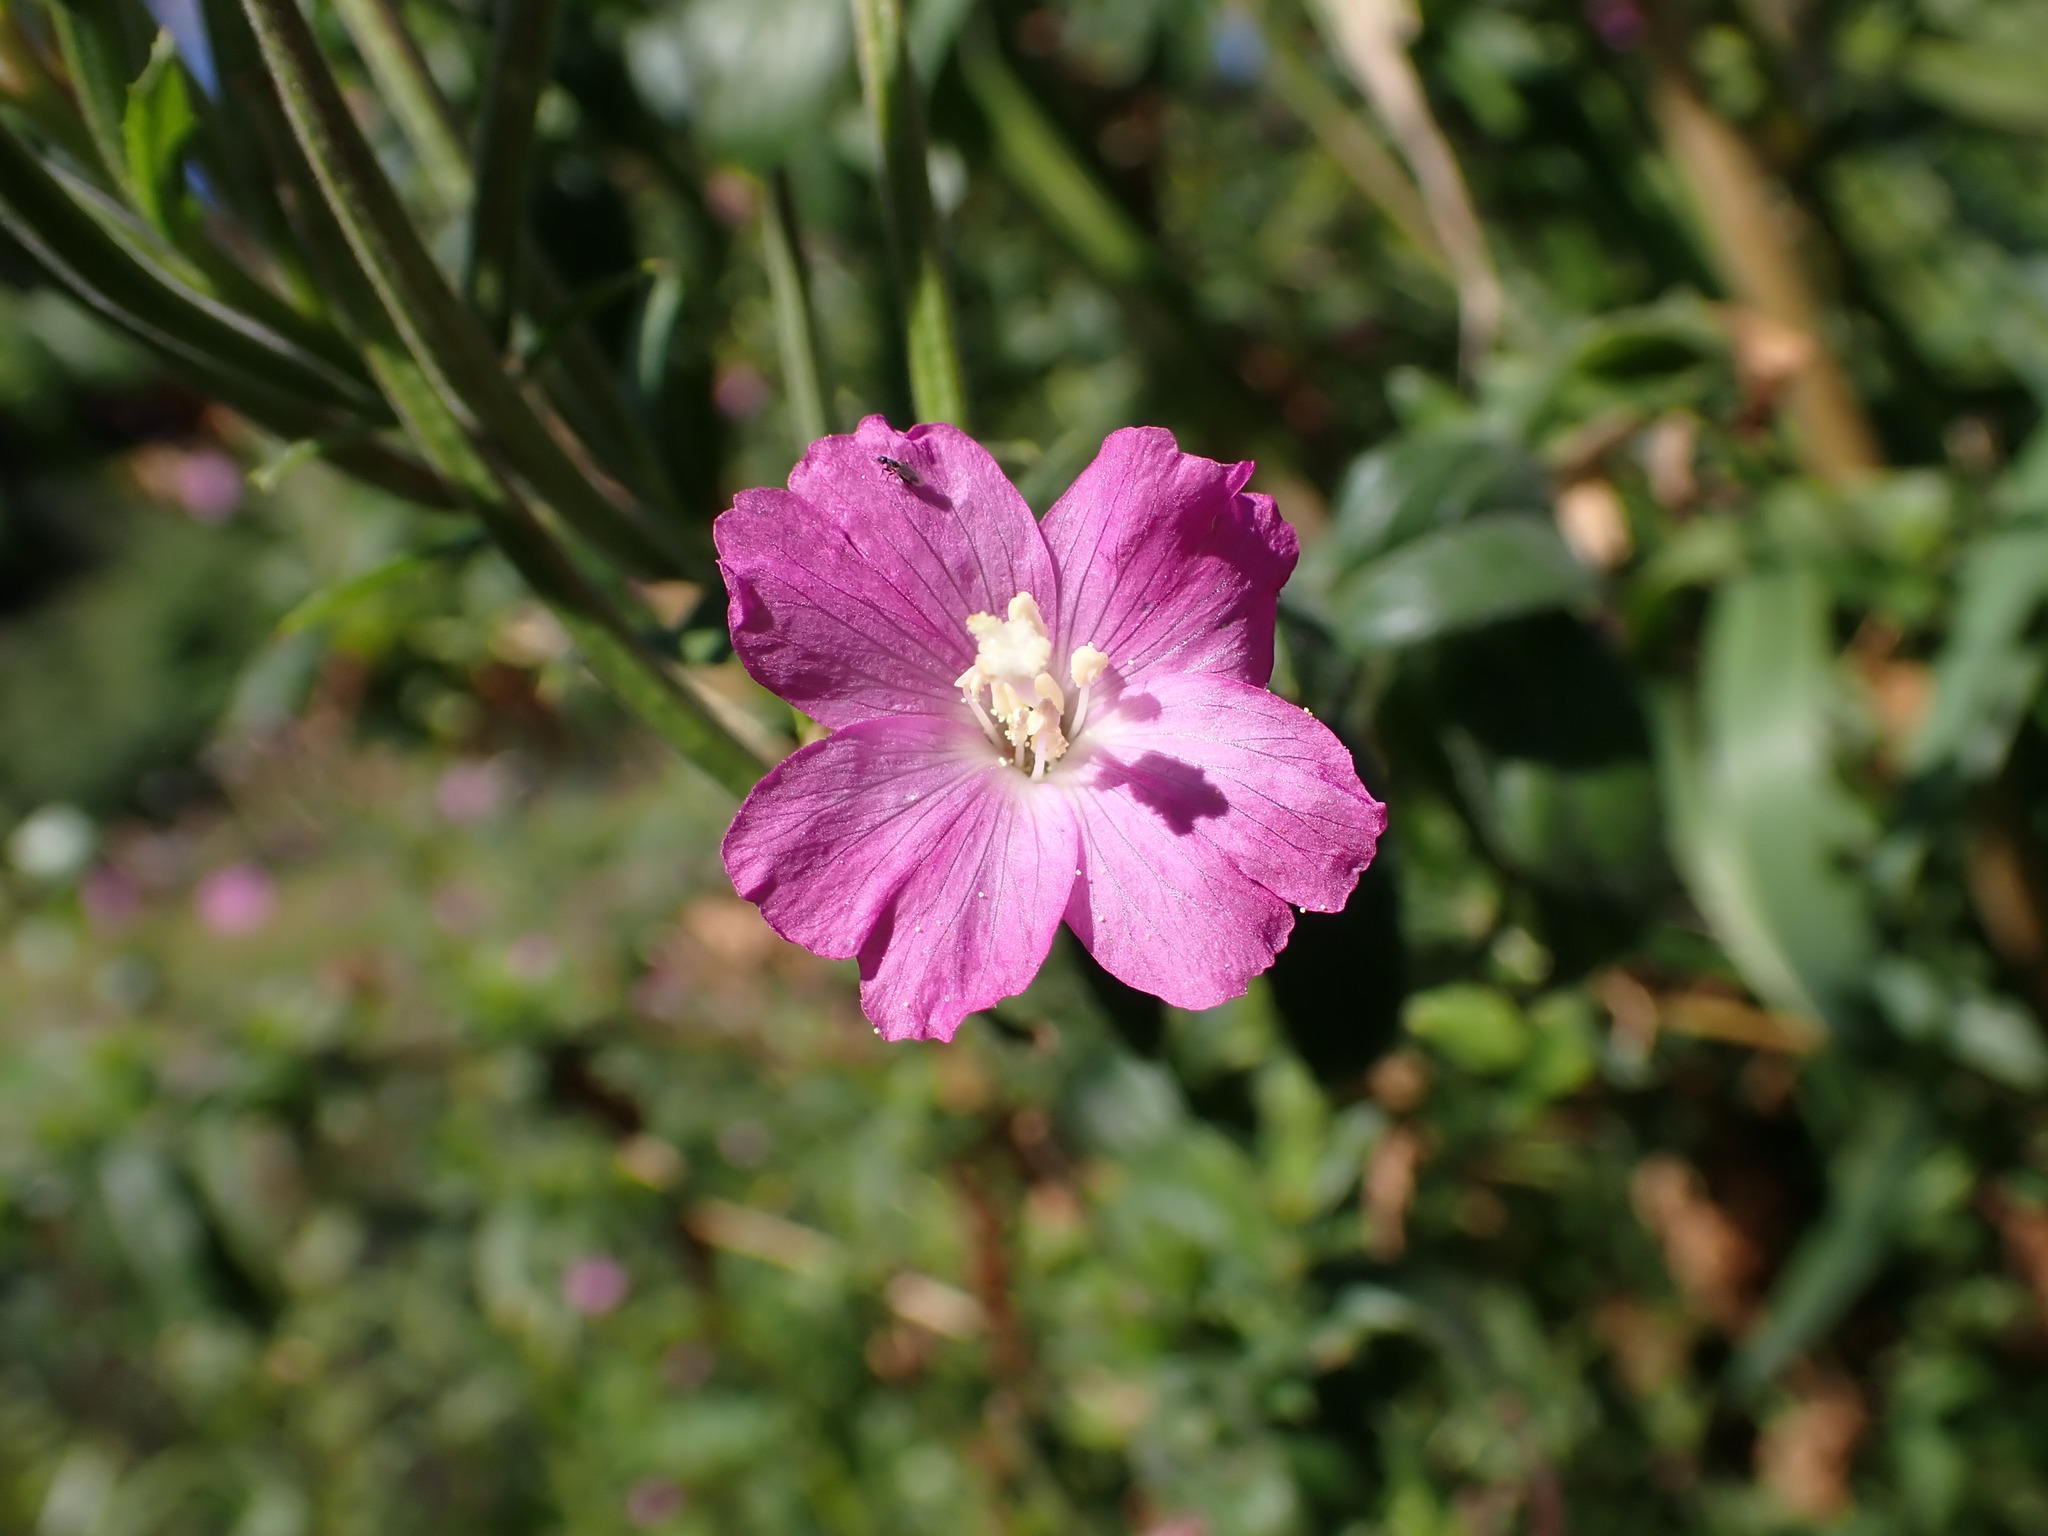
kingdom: Plantae
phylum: Tracheophyta
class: Magnoliopsida
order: Myrtales
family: Onagraceae
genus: Epilobium
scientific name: Epilobium hirsutum
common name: Great willowherb
